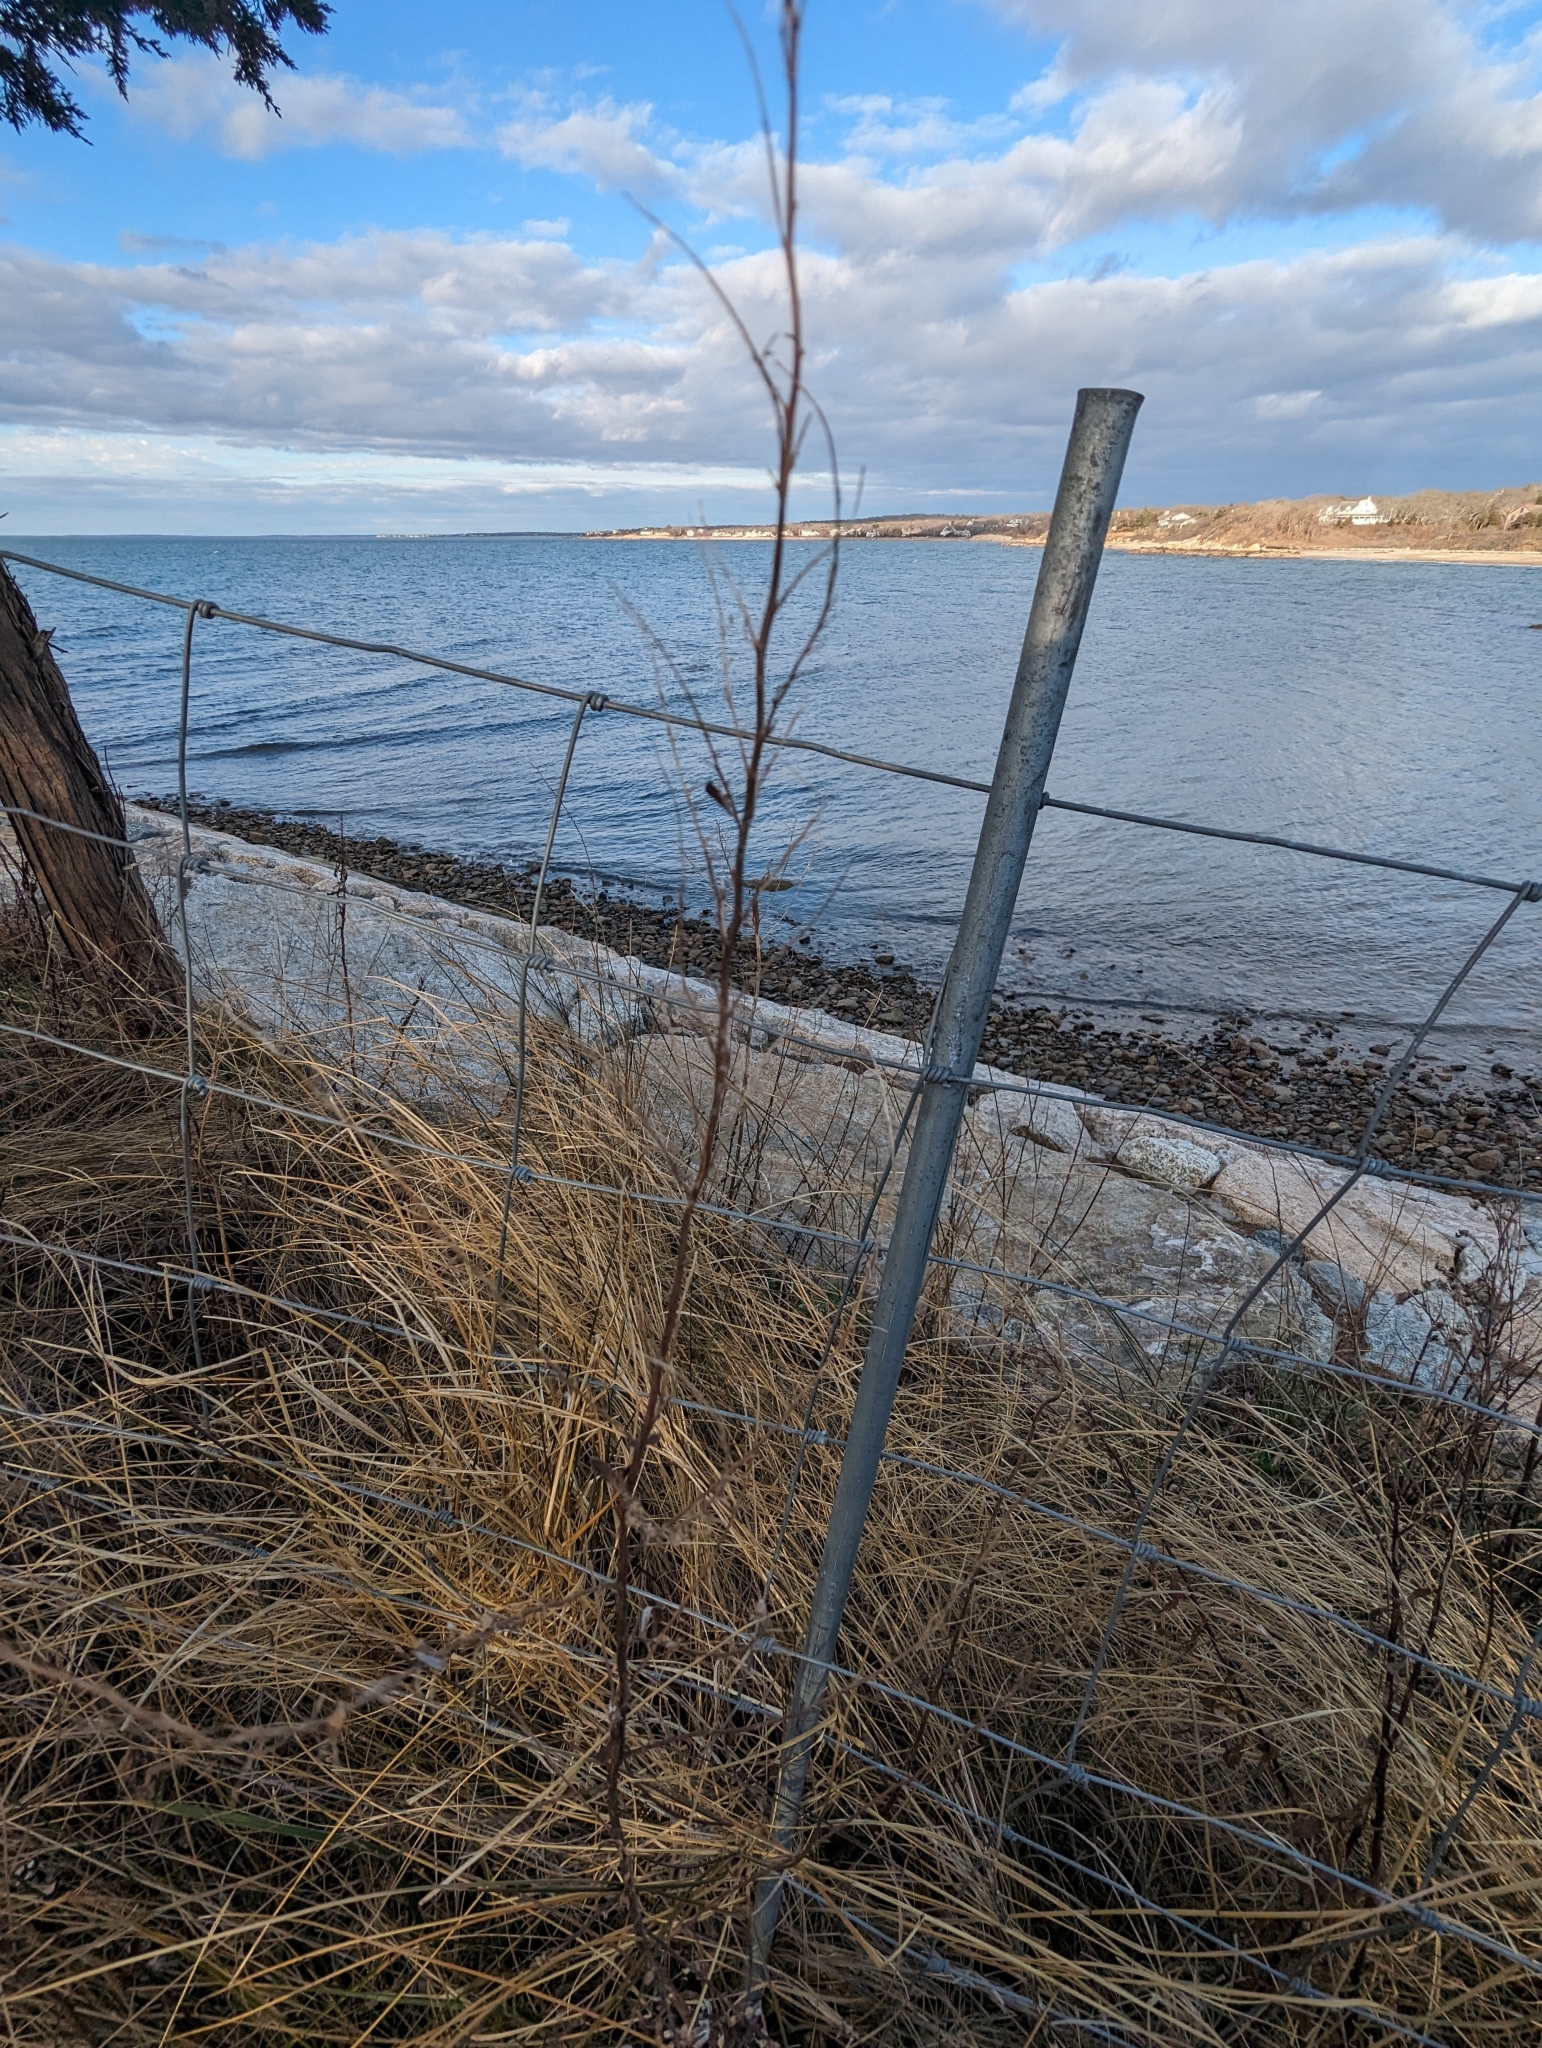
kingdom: Plantae
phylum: Tracheophyta
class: Magnoliopsida
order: Asterales
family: Asteraceae
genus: Artemisia
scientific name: Artemisia vulgaris
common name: Mugwort
